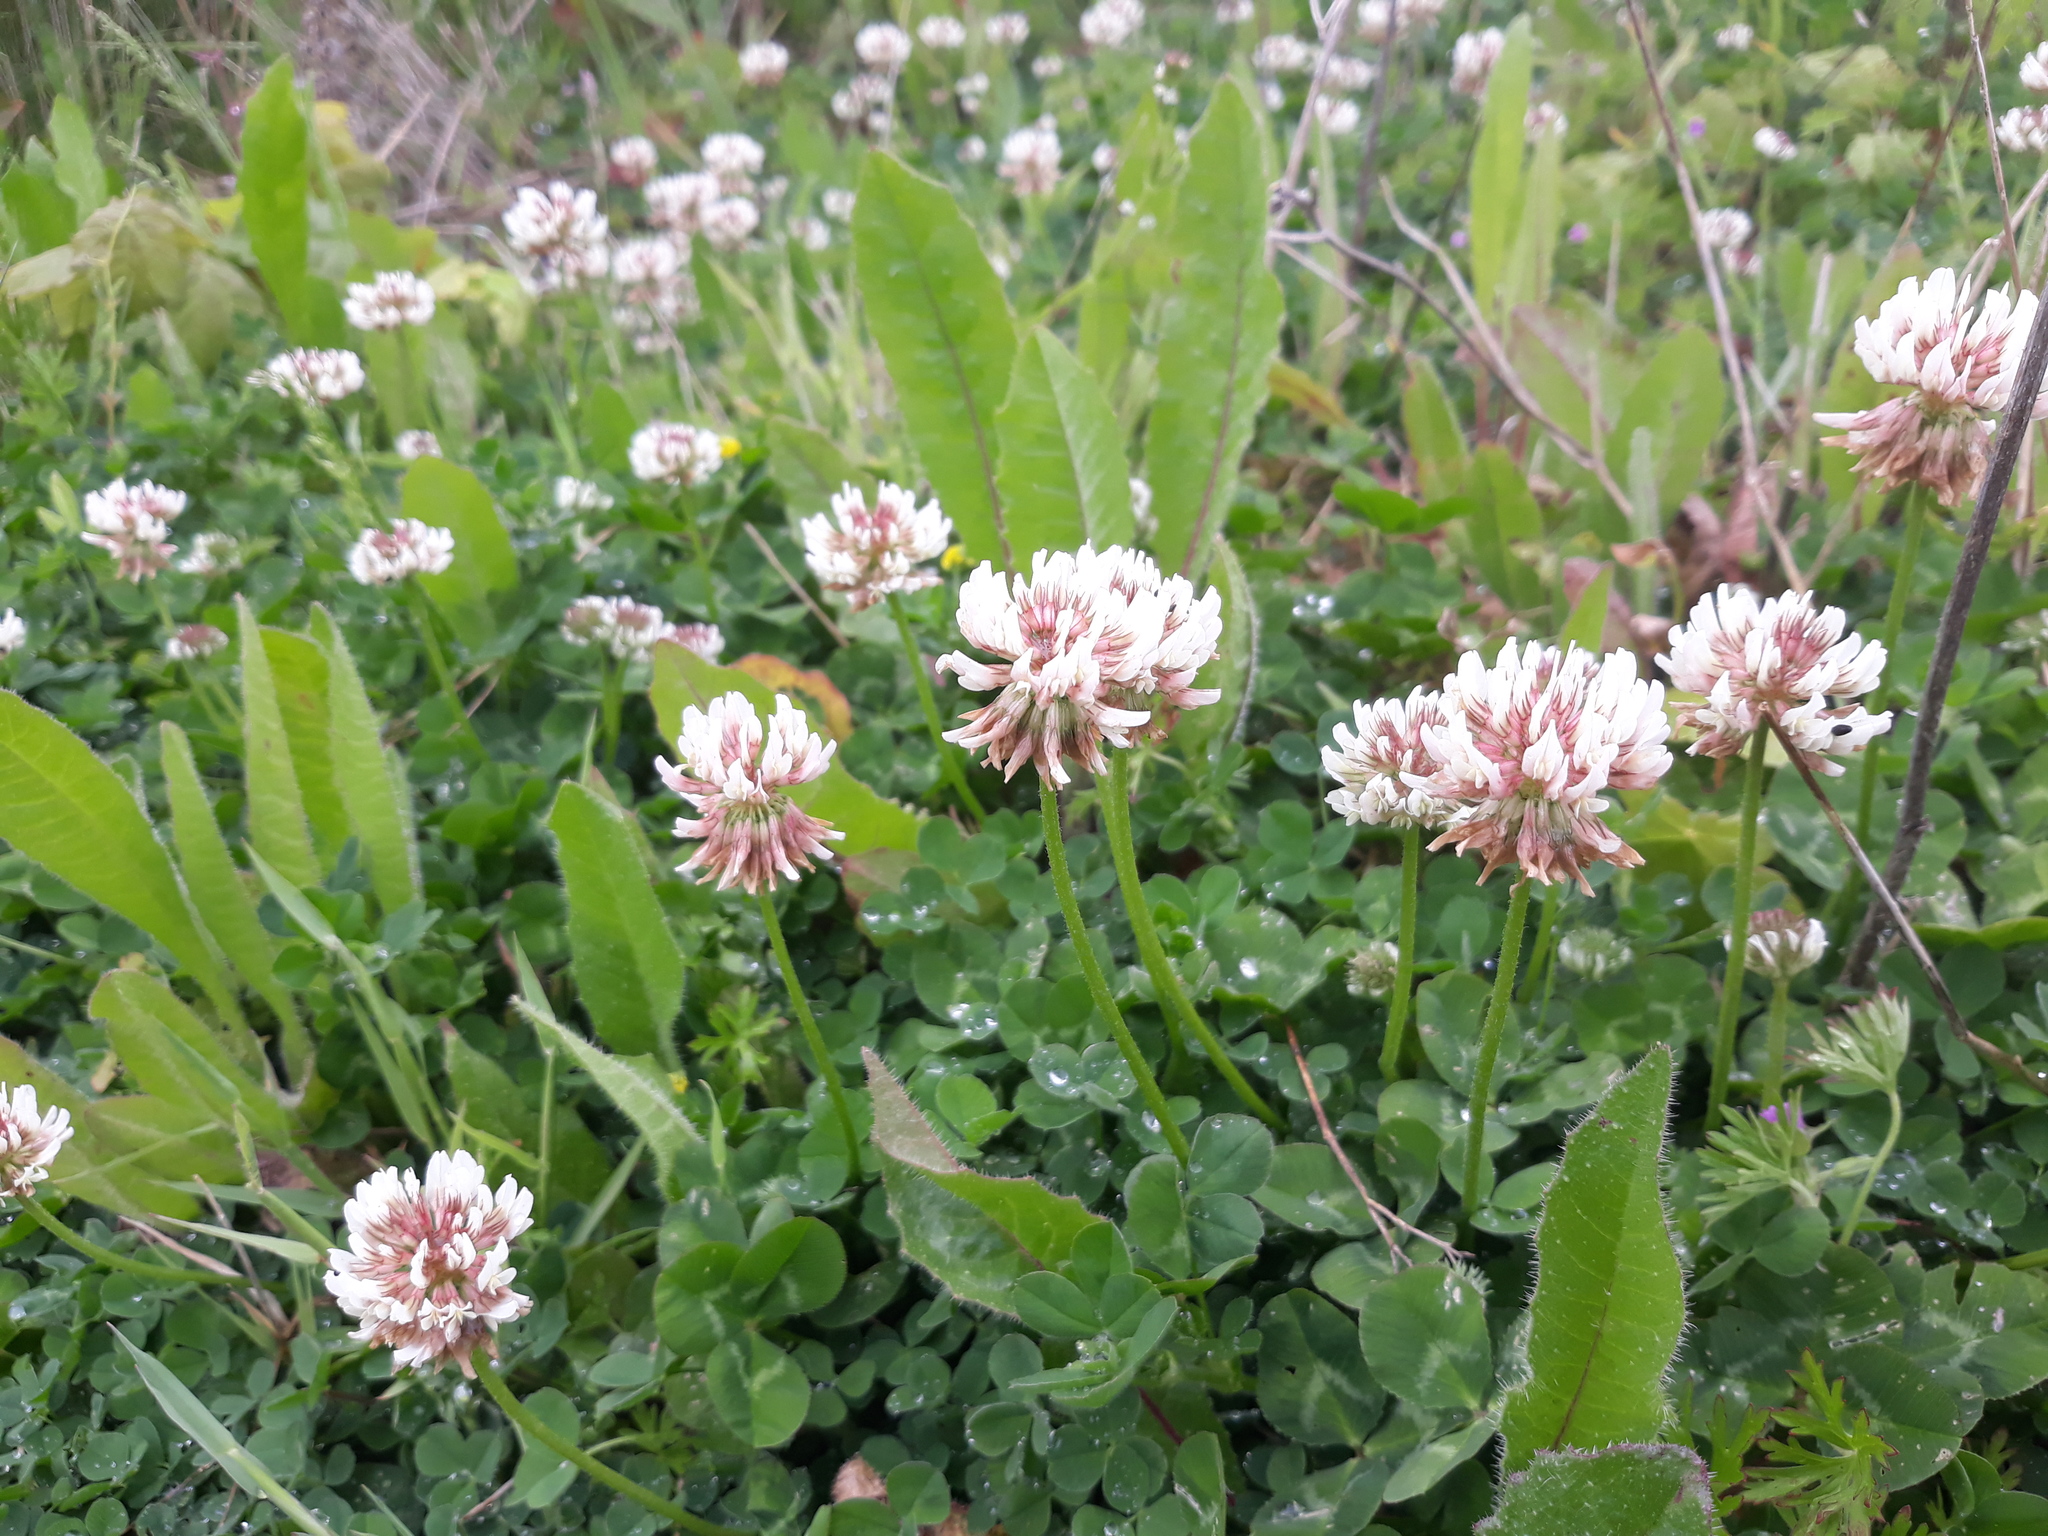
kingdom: Plantae
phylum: Tracheophyta
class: Magnoliopsida
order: Fabales
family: Fabaceae
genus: Trifolium
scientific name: Trifolium repens
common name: White clover
